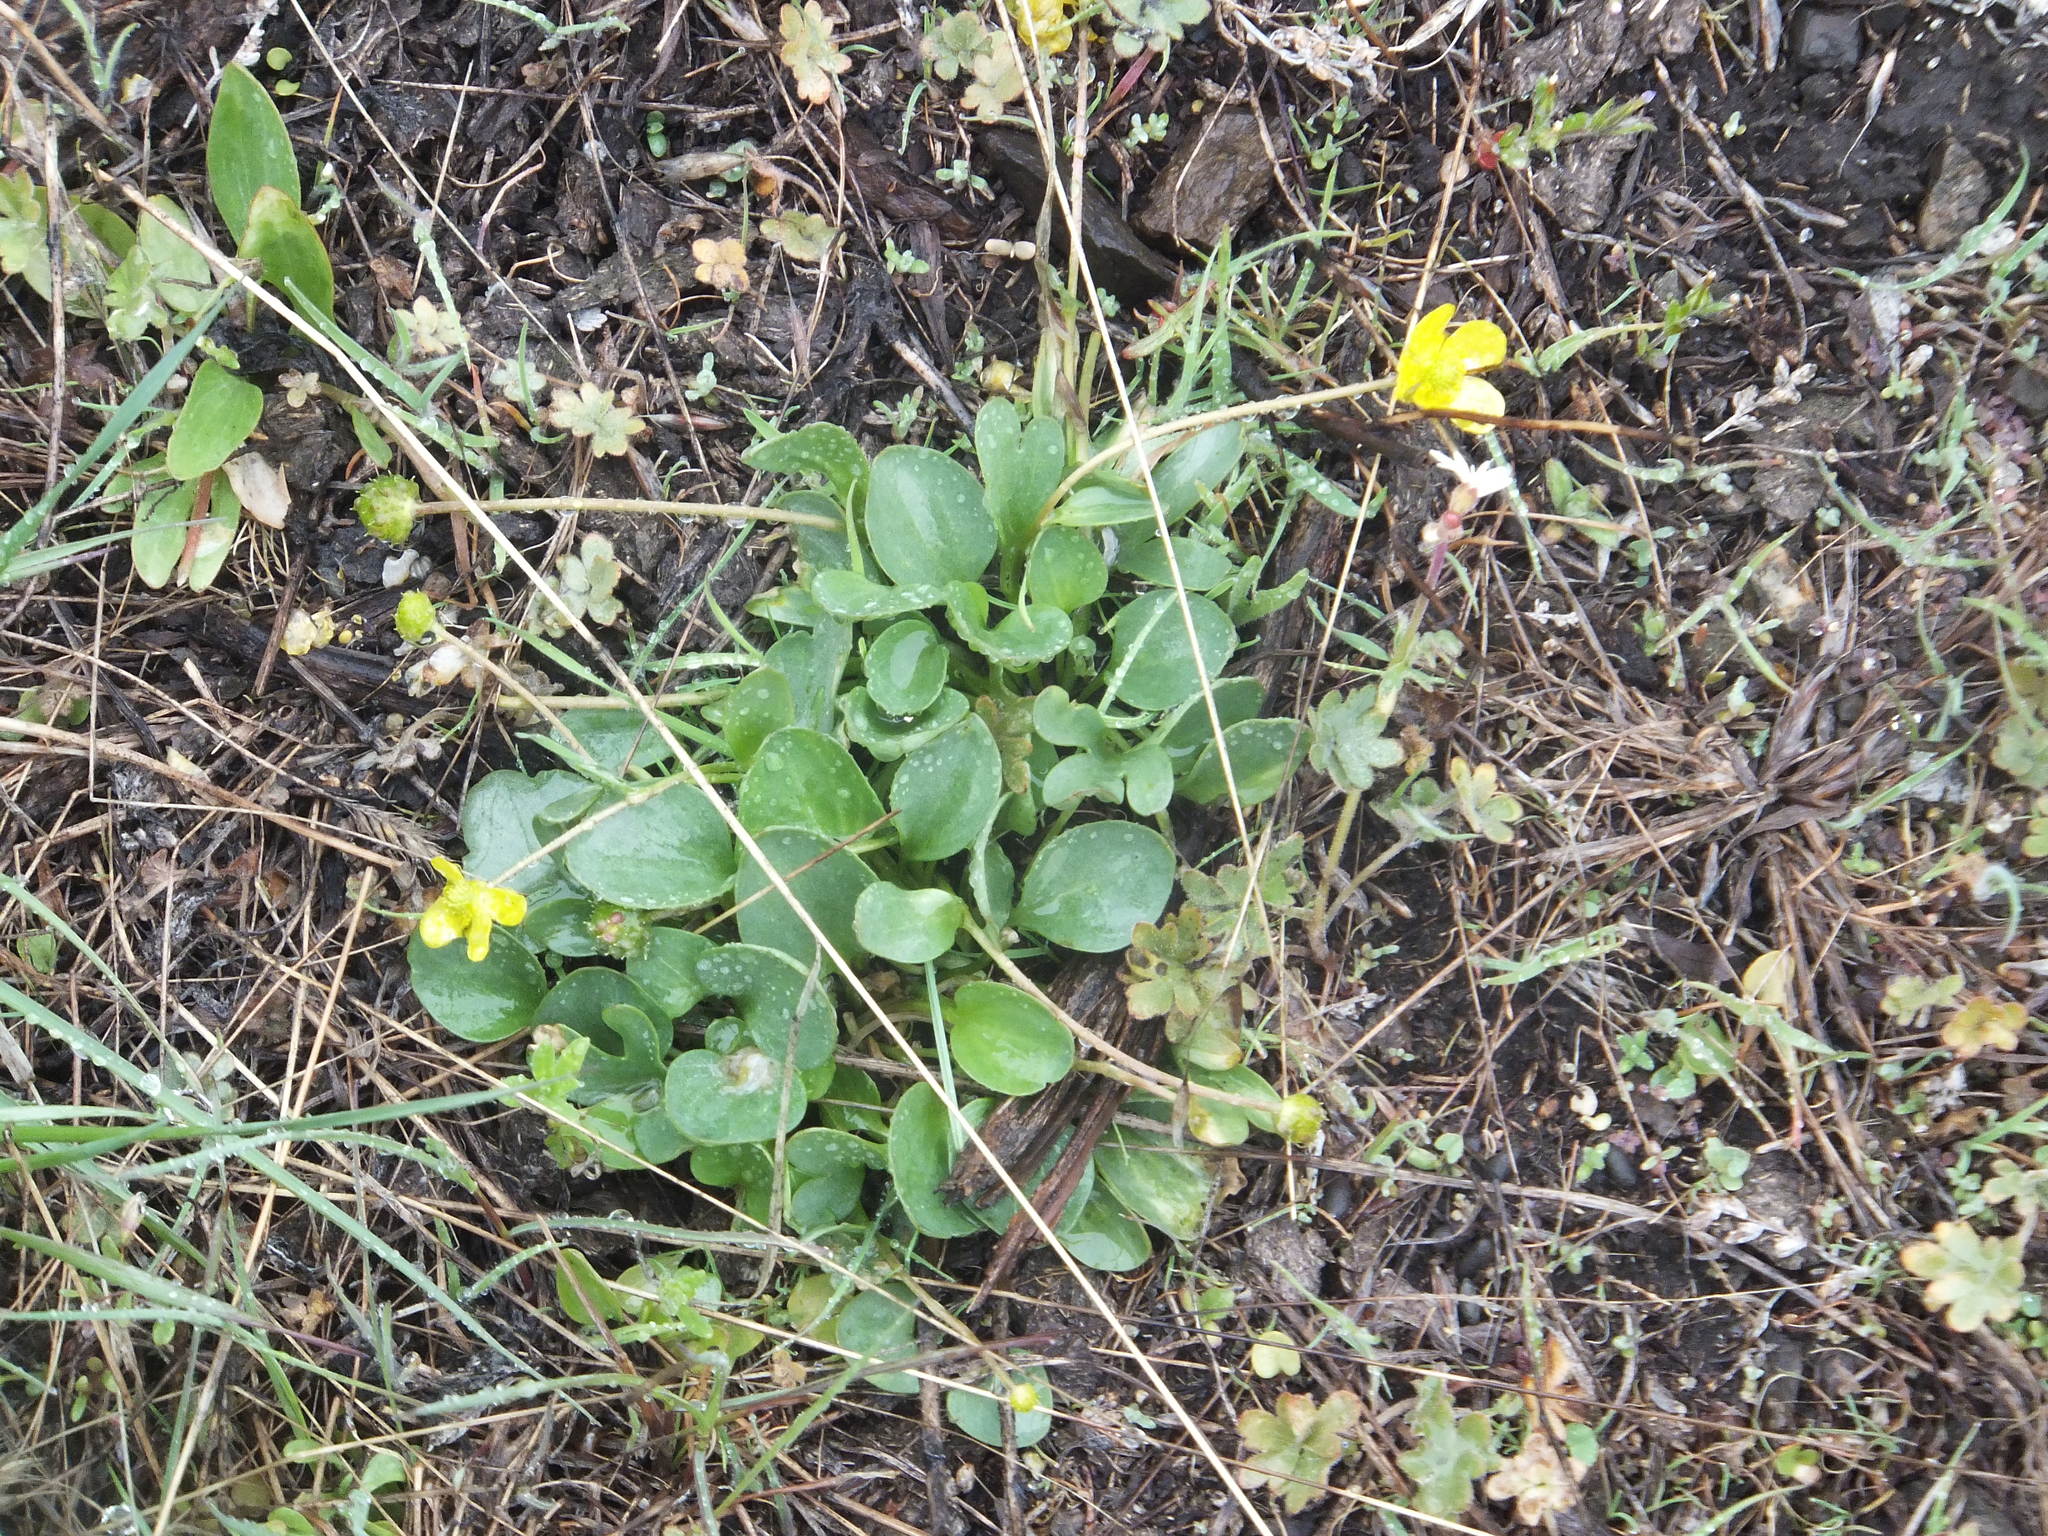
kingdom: Plantae
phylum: Tracheophyta
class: Magnoliopsida
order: Ranunculales
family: Ranunculaceae
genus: Ranunculus
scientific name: Ranunculus glaberrimus
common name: Sagebrush buttercup
